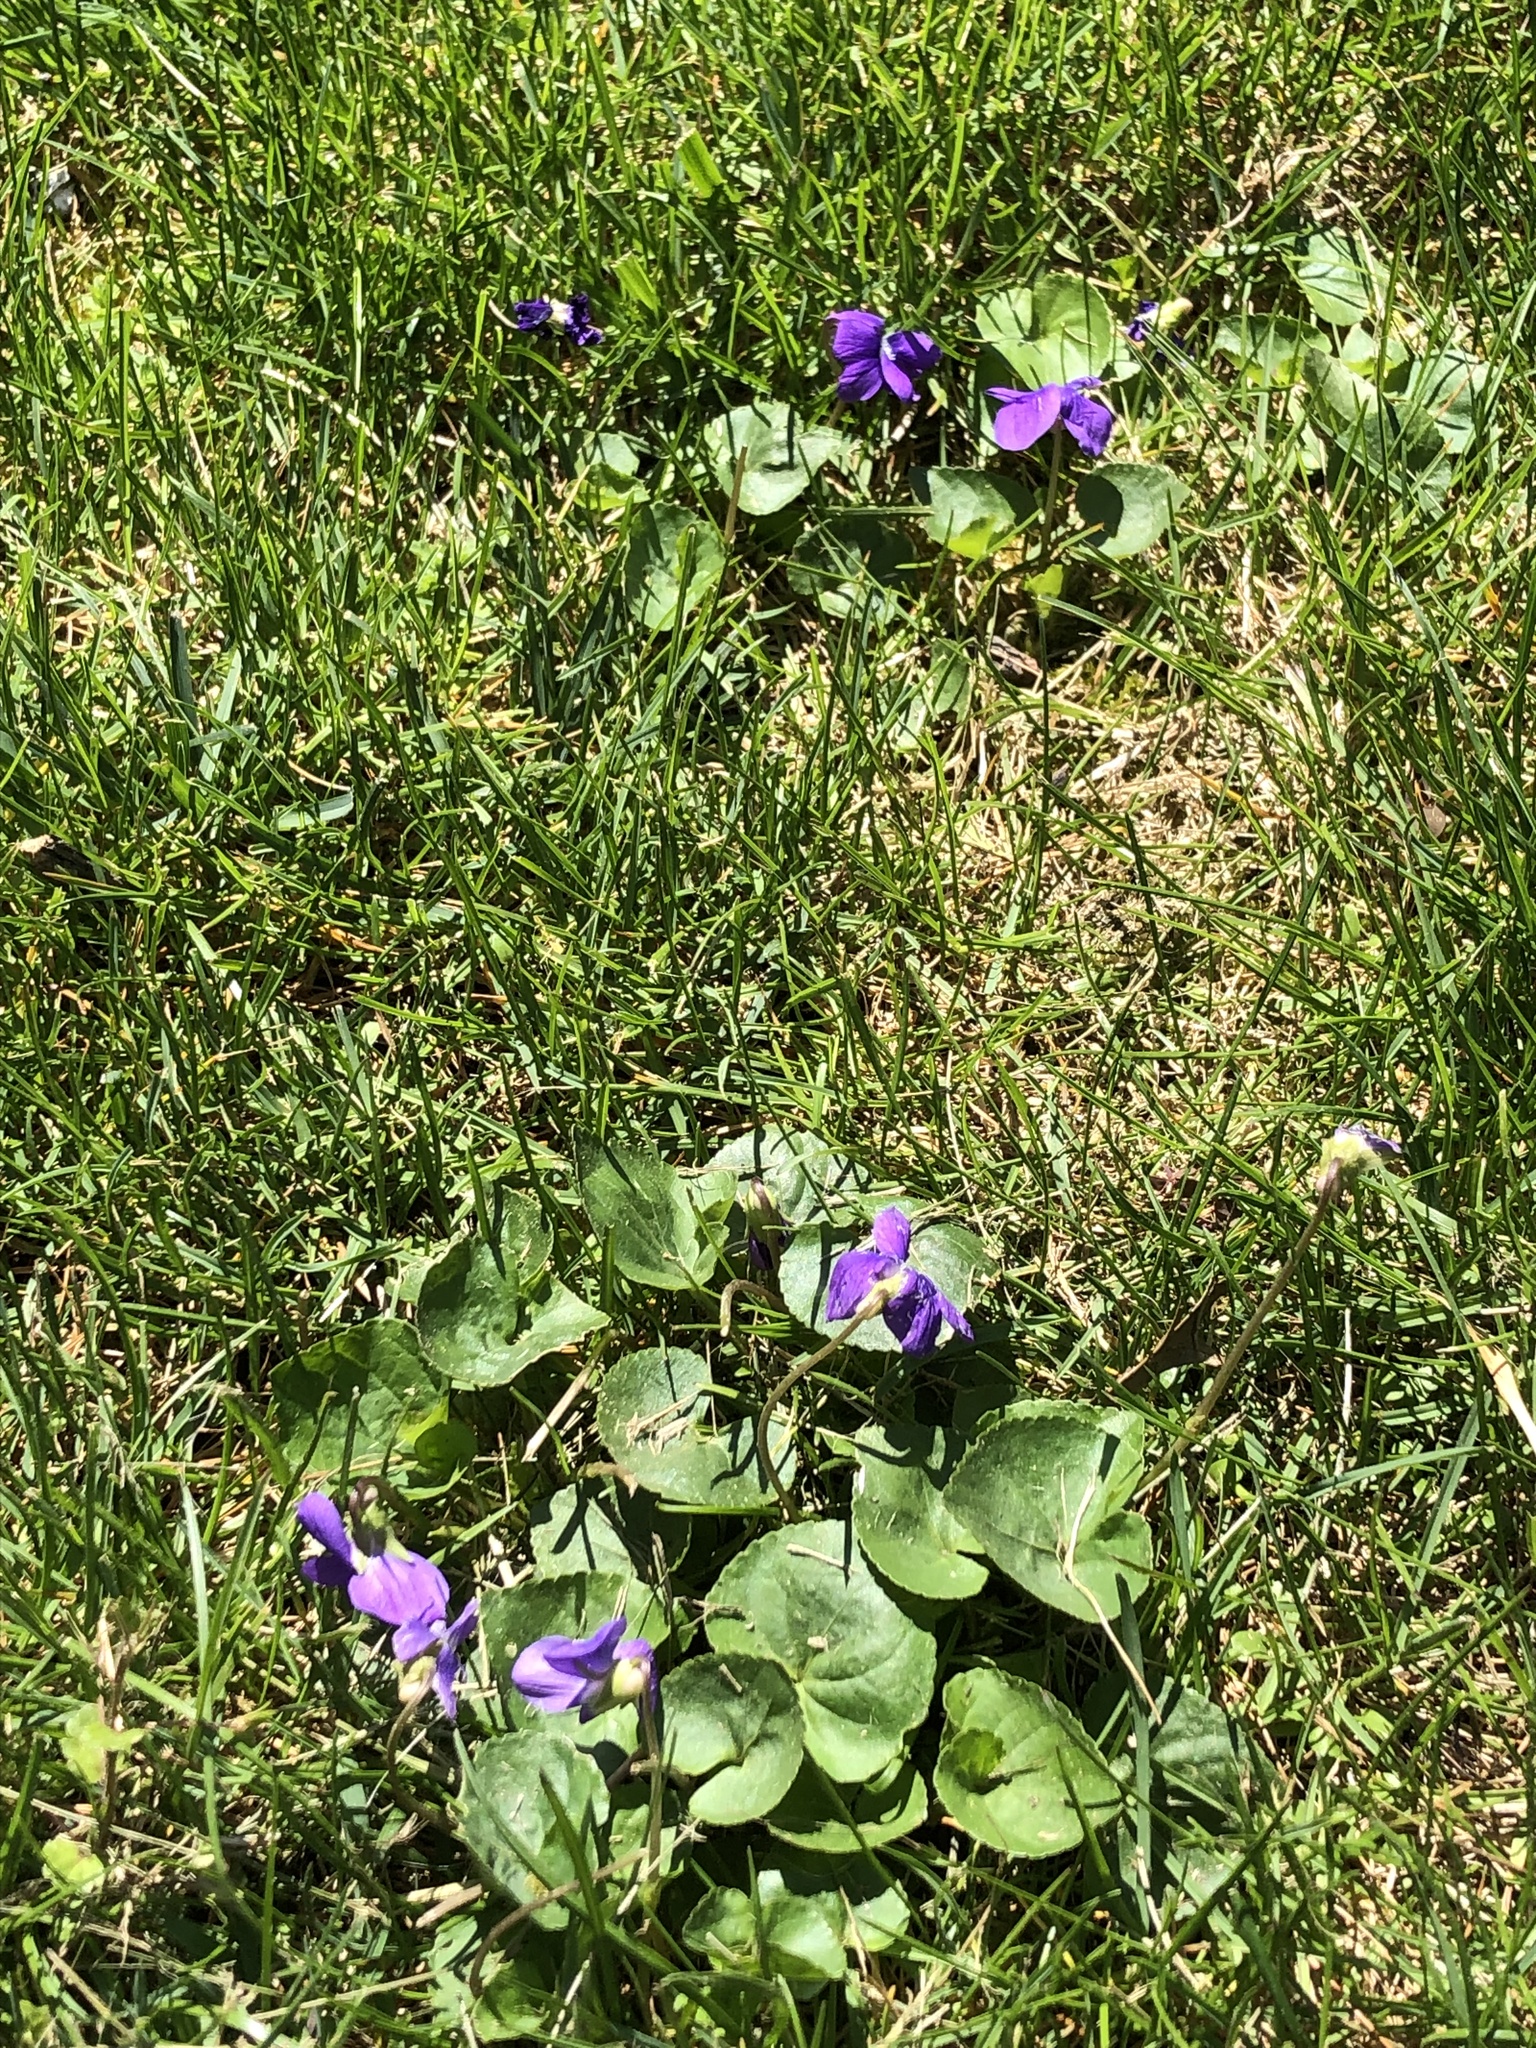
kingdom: Plantae
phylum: Tracheophyta
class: Magnoliopsida
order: Malpighiales
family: Violaceae
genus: Viola
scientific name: Viola sororia
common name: Dooryard violet
